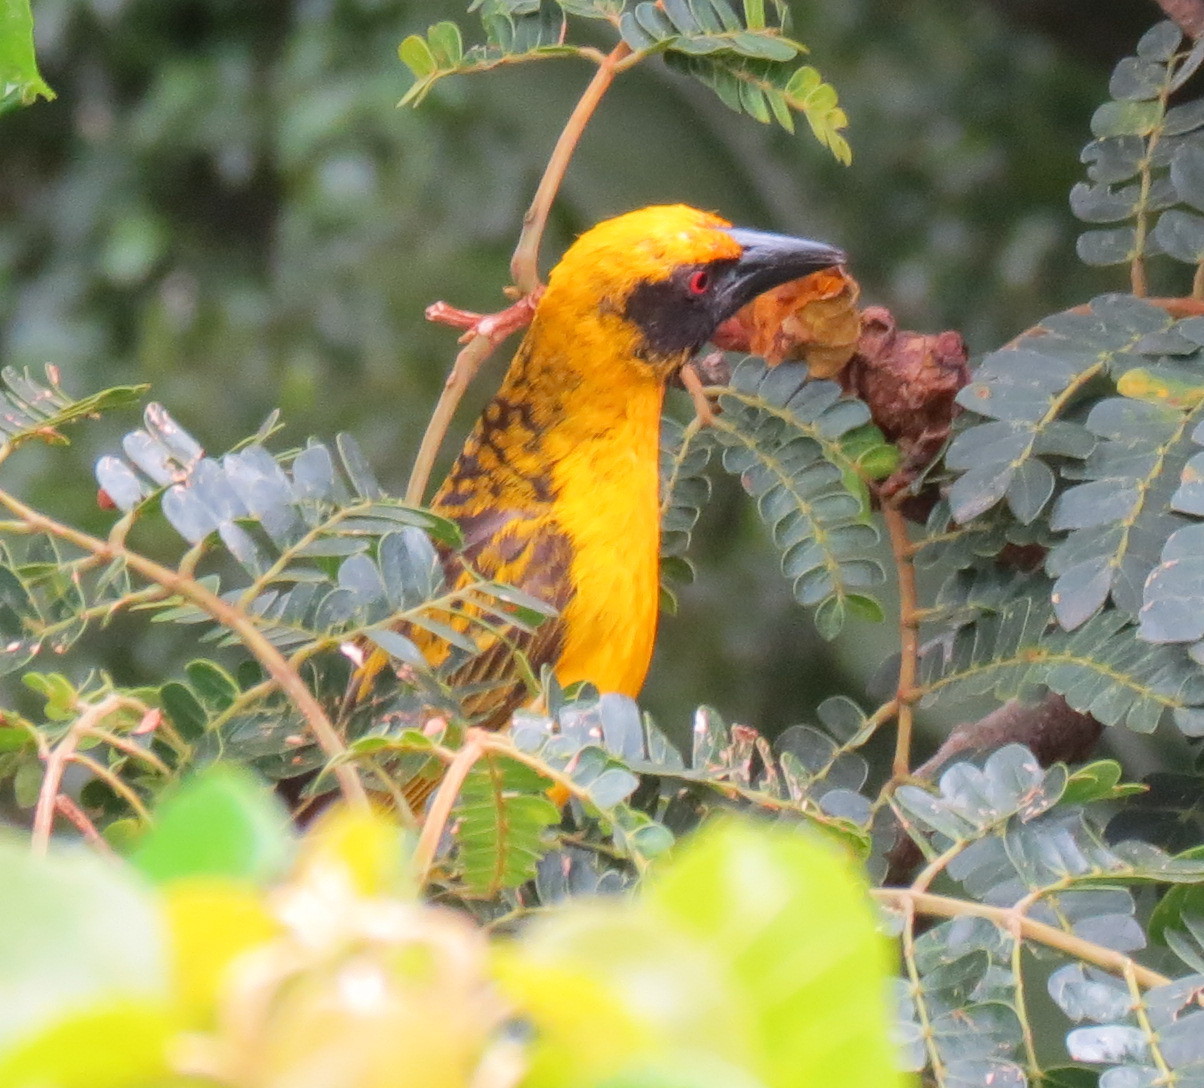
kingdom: Animalia
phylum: Chordata
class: Aves
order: Passeriformes
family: Ploceidae
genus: Ploceus
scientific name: Ploceus cucullatus
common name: Village weaver
